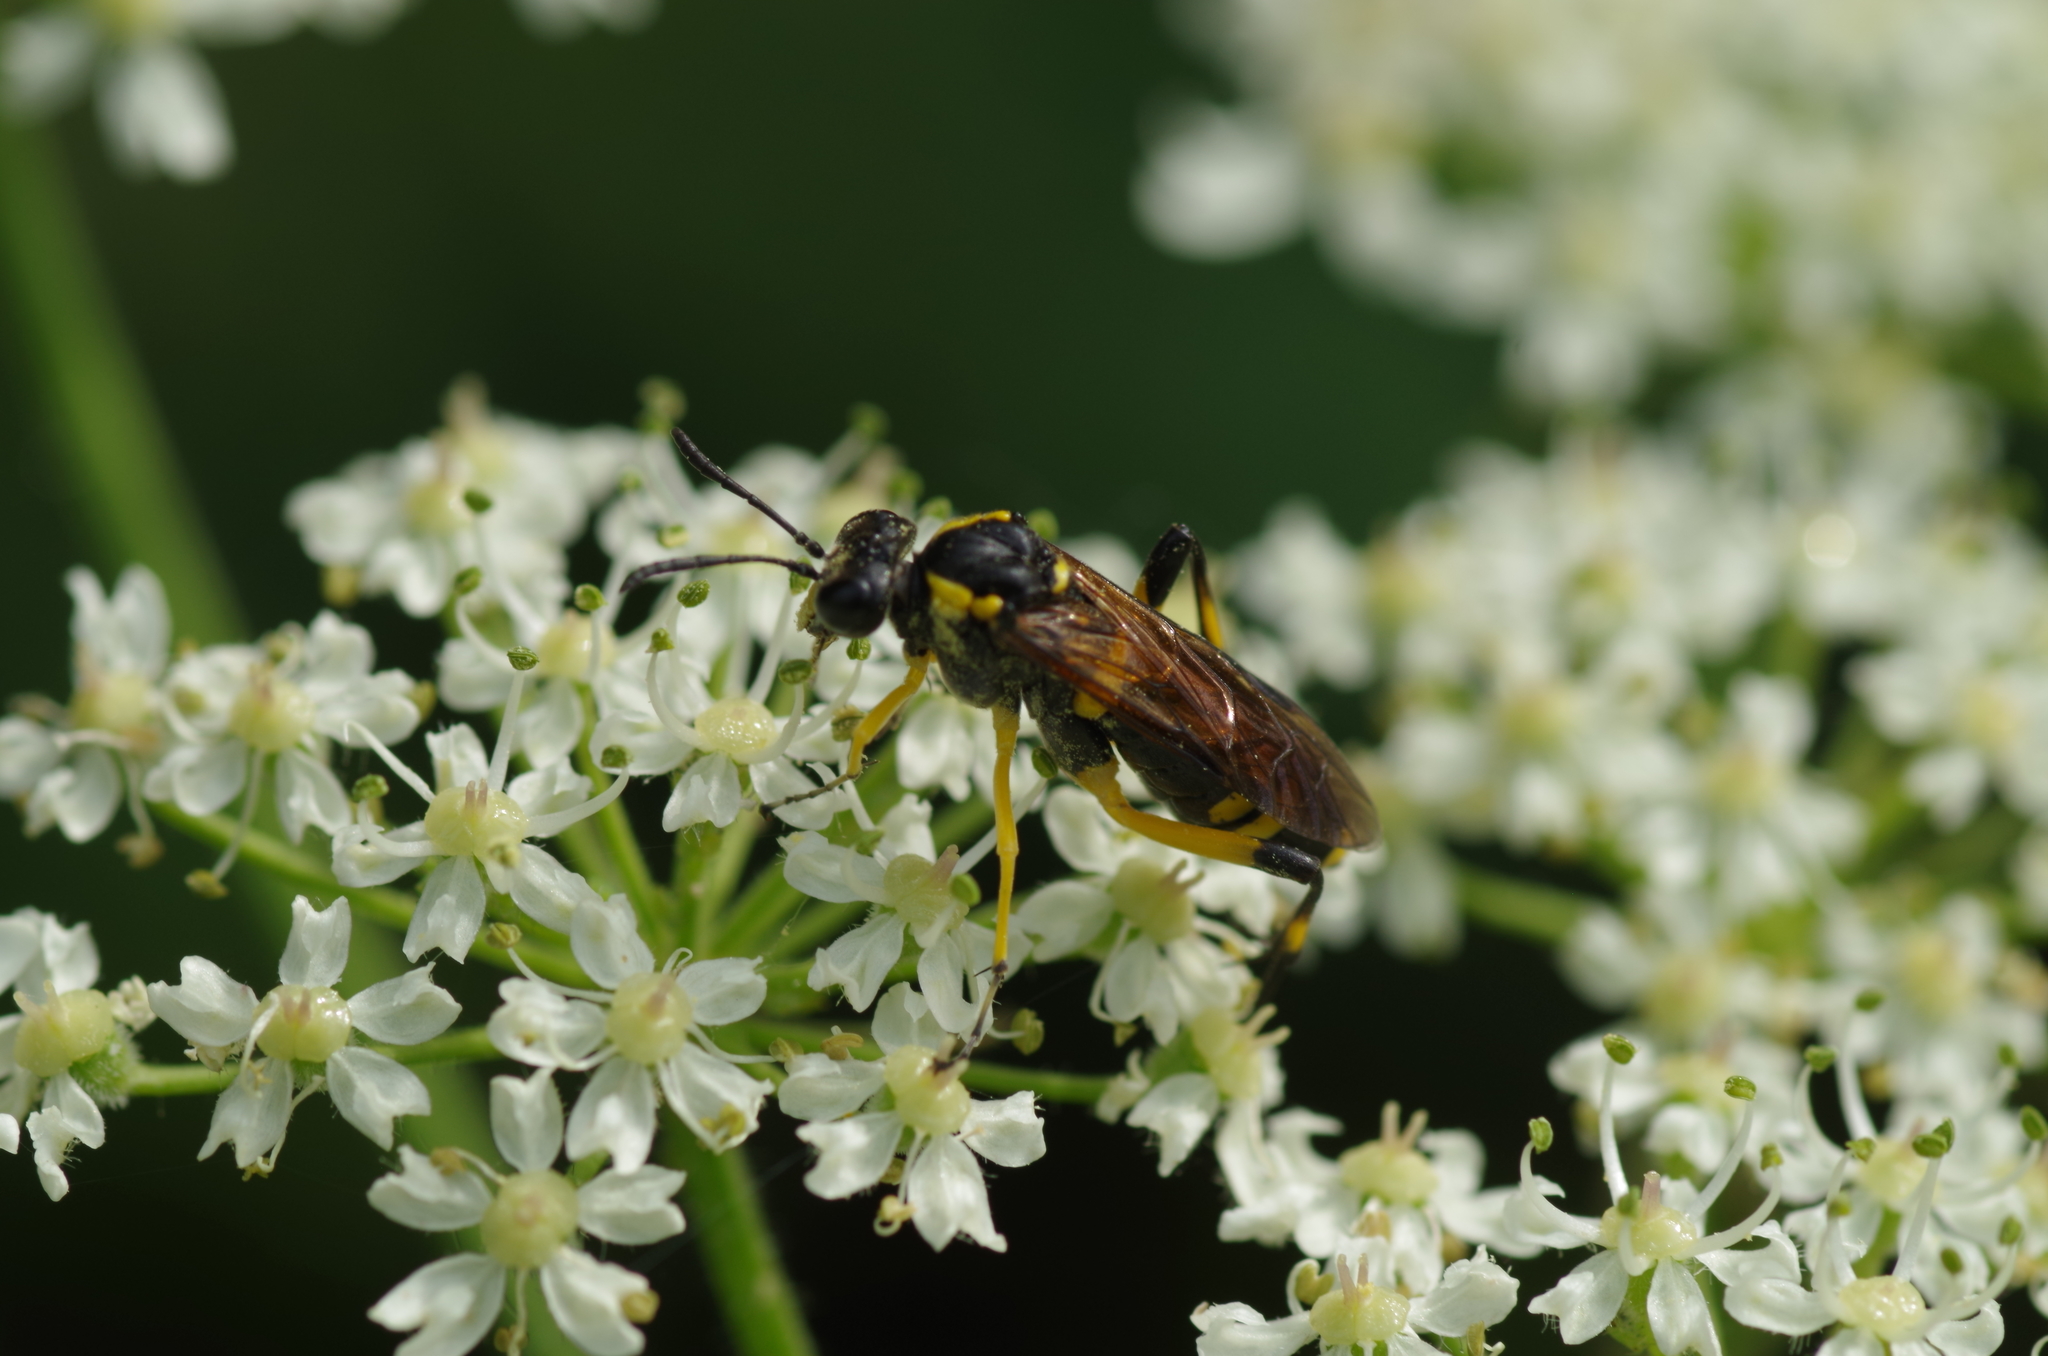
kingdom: Animalia
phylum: Arthropoda
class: Insecta
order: Hymenoptera
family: Tenthredinidae
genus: Macrophya
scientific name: Macrophya montana
